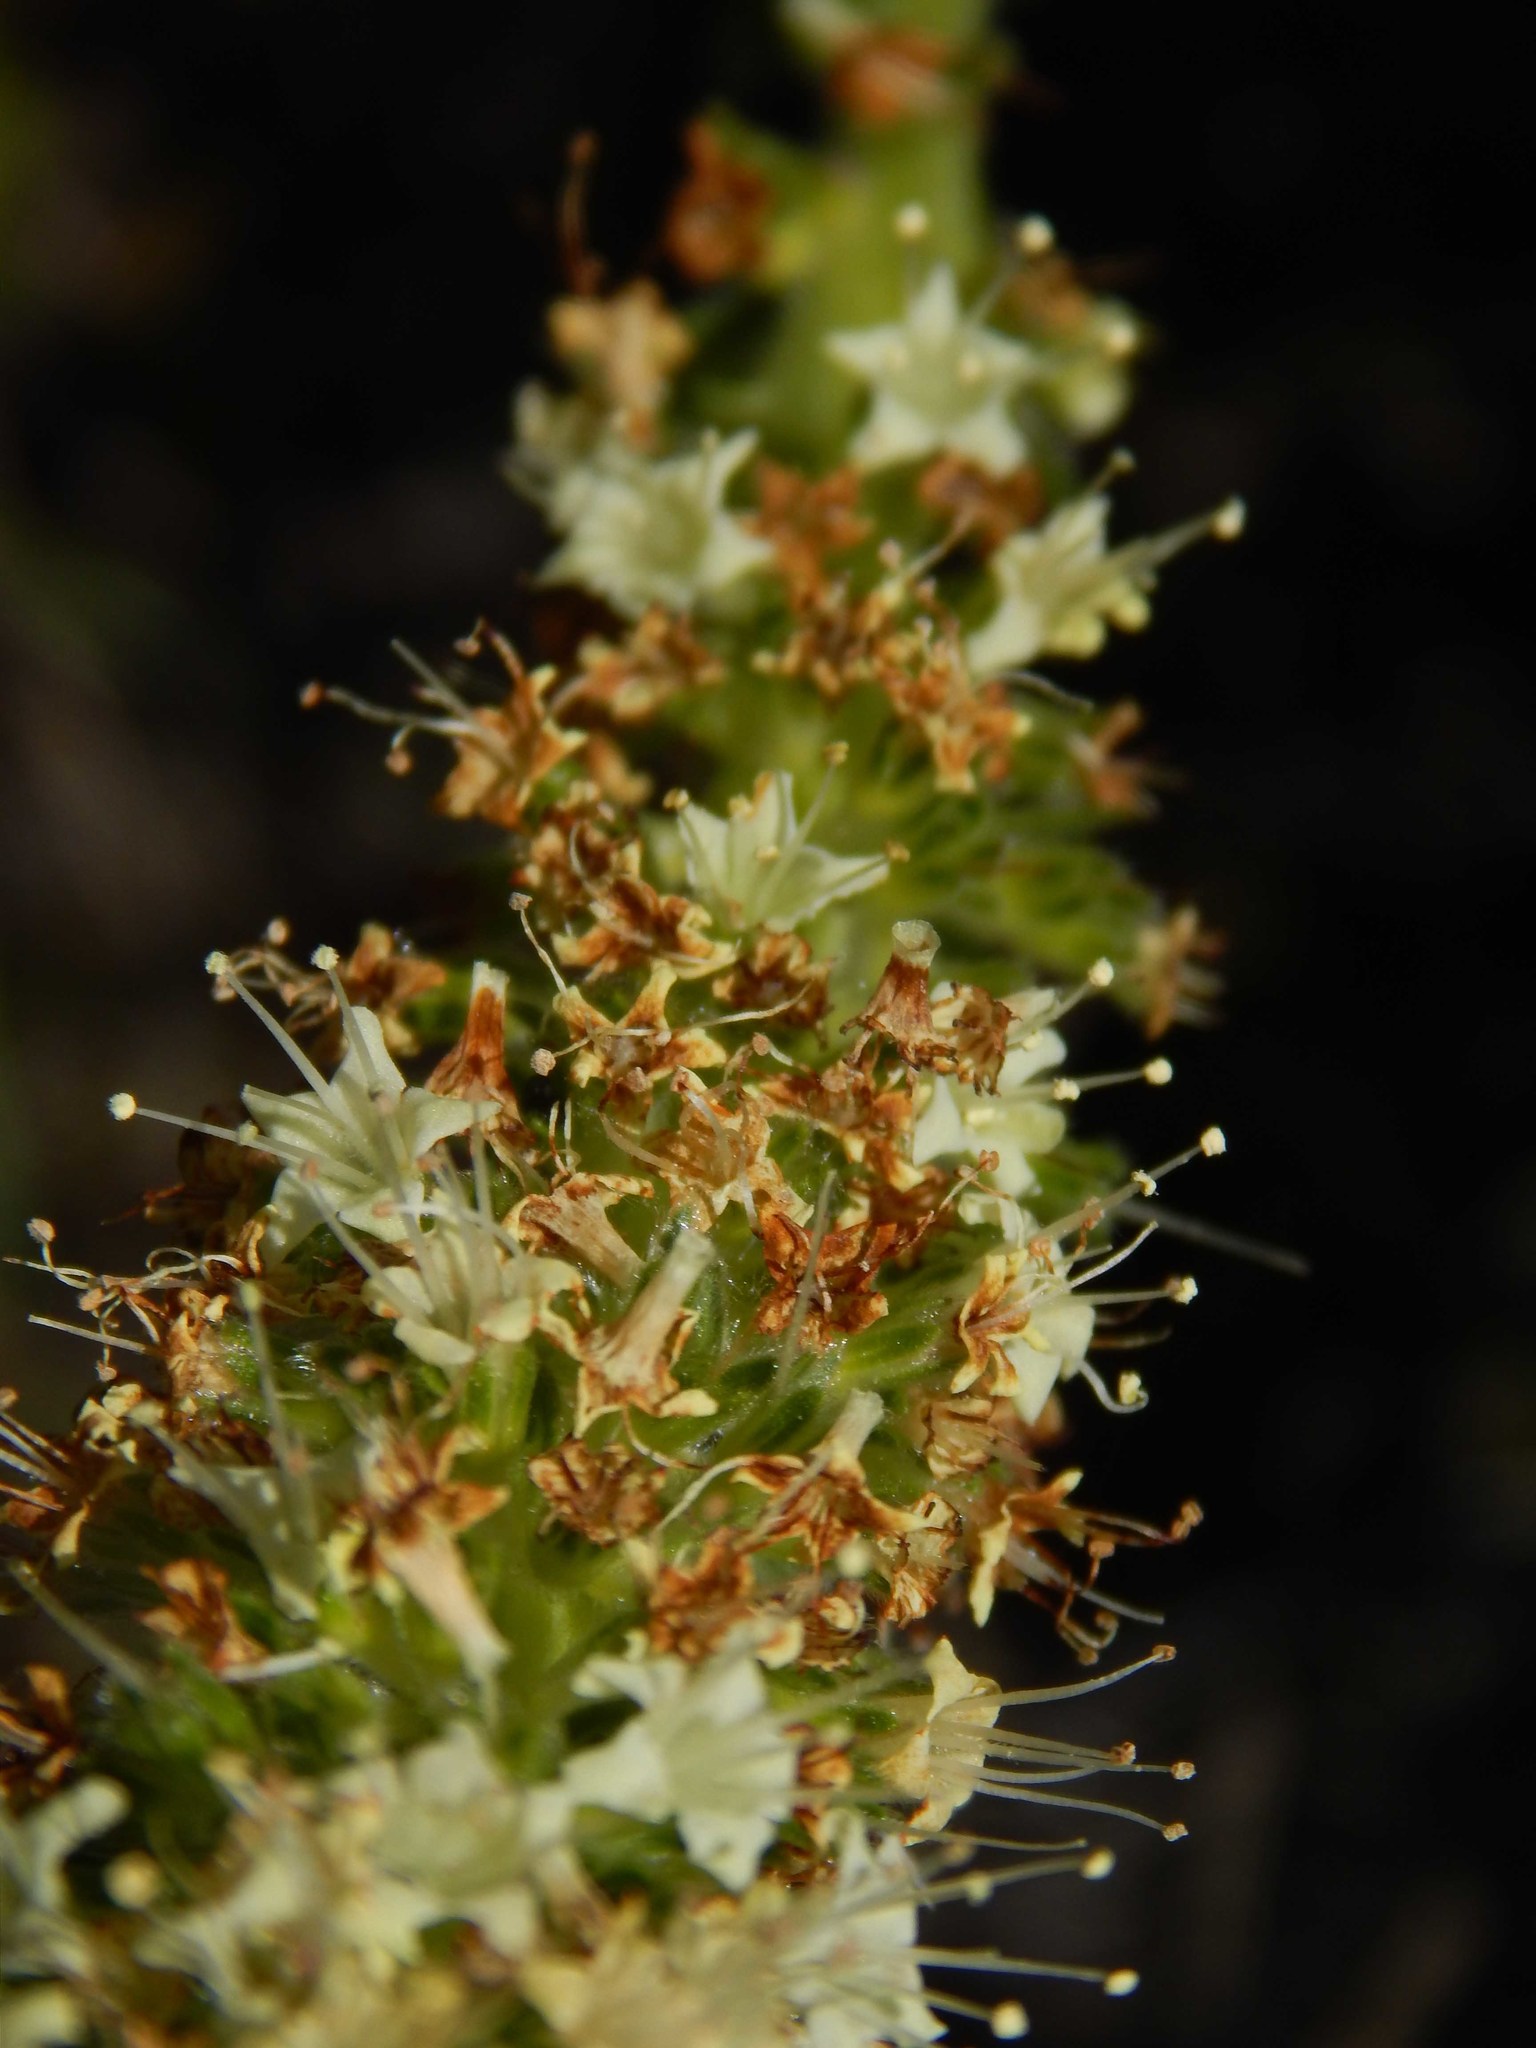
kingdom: Plantae
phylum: Tracheophyta
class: Magnoliopsida
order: Boraginales
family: Boraginaceae
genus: Lobostemon
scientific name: Lobostemon splendens
